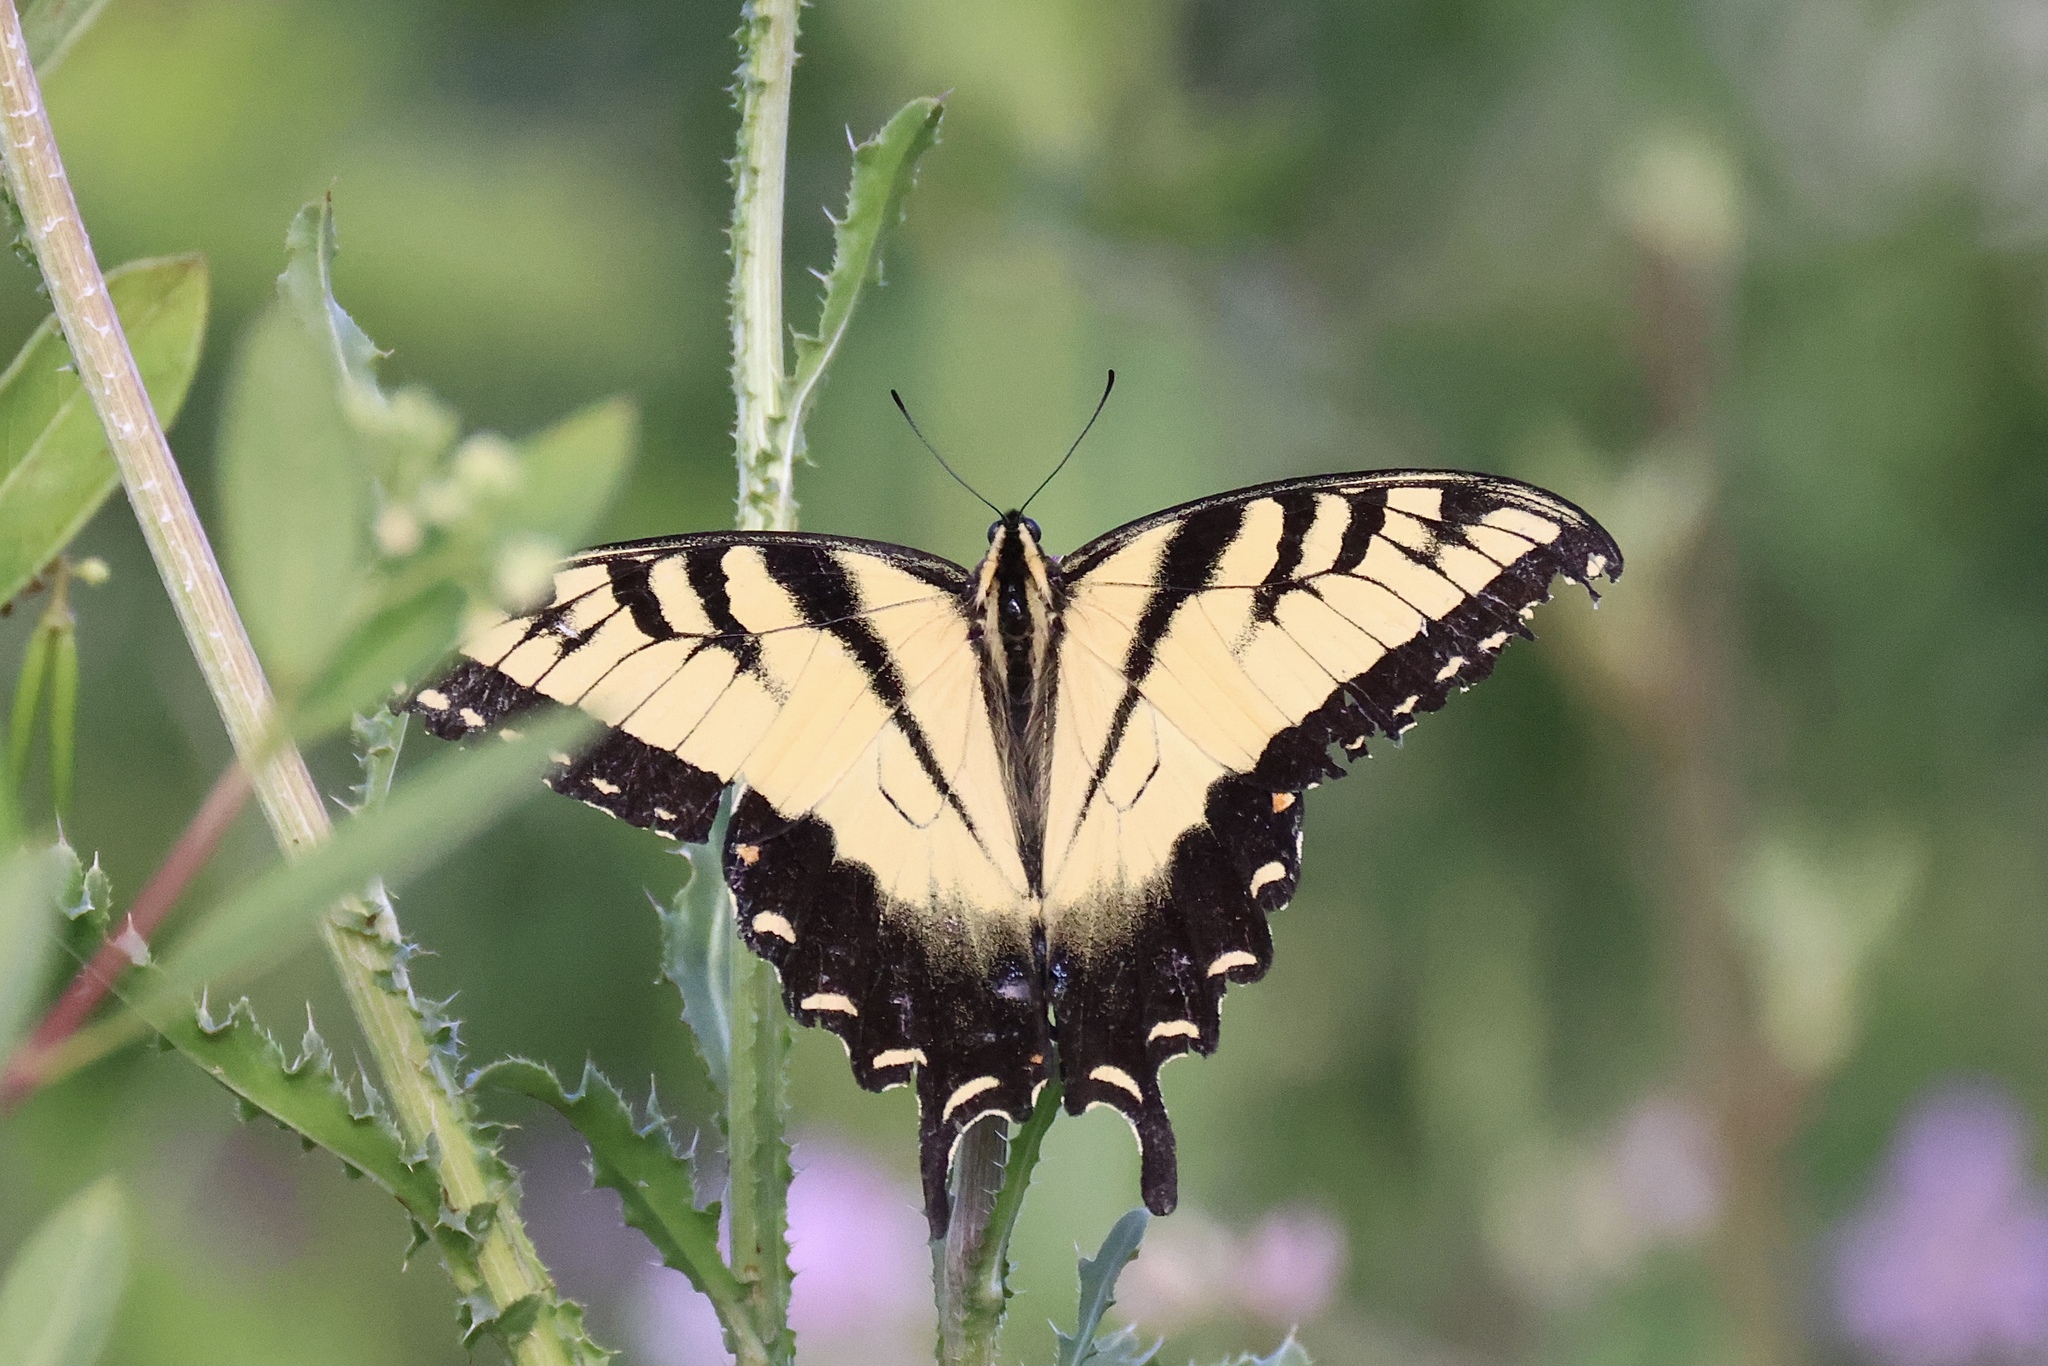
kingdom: Animalia
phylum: Arthropoda
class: Insecta
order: Lepidoptera
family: Papilionidae
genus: Papilio
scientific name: Papilio glaucus
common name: Tiger swallowtail
